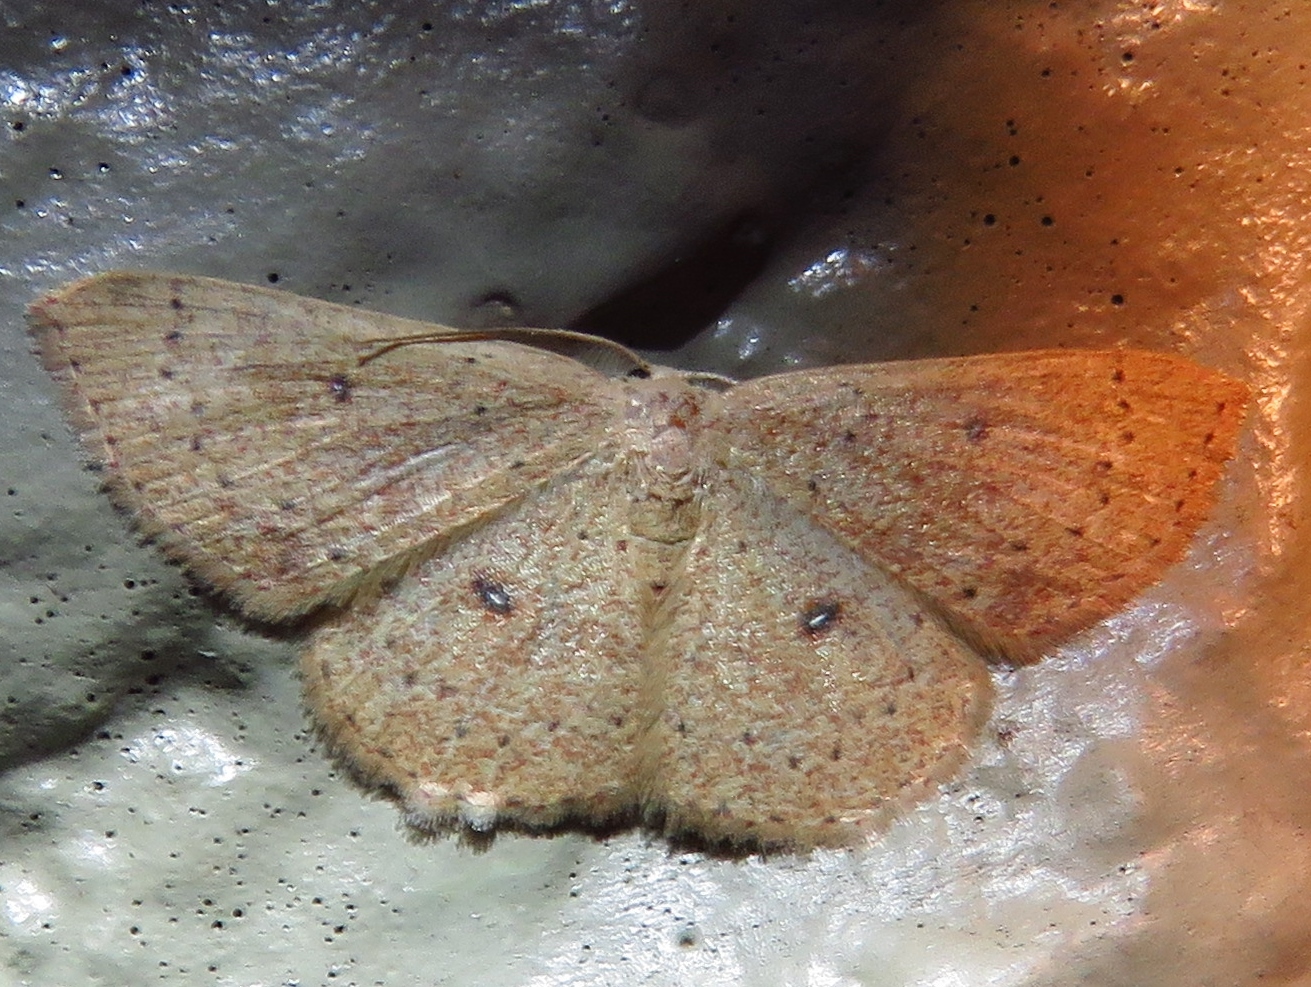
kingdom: Animalia
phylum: Arthropoda
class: Insecta
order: Lepidoptera
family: Geometridae
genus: Cyclophora
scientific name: Cyclophora packardi
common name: Packard's wave
